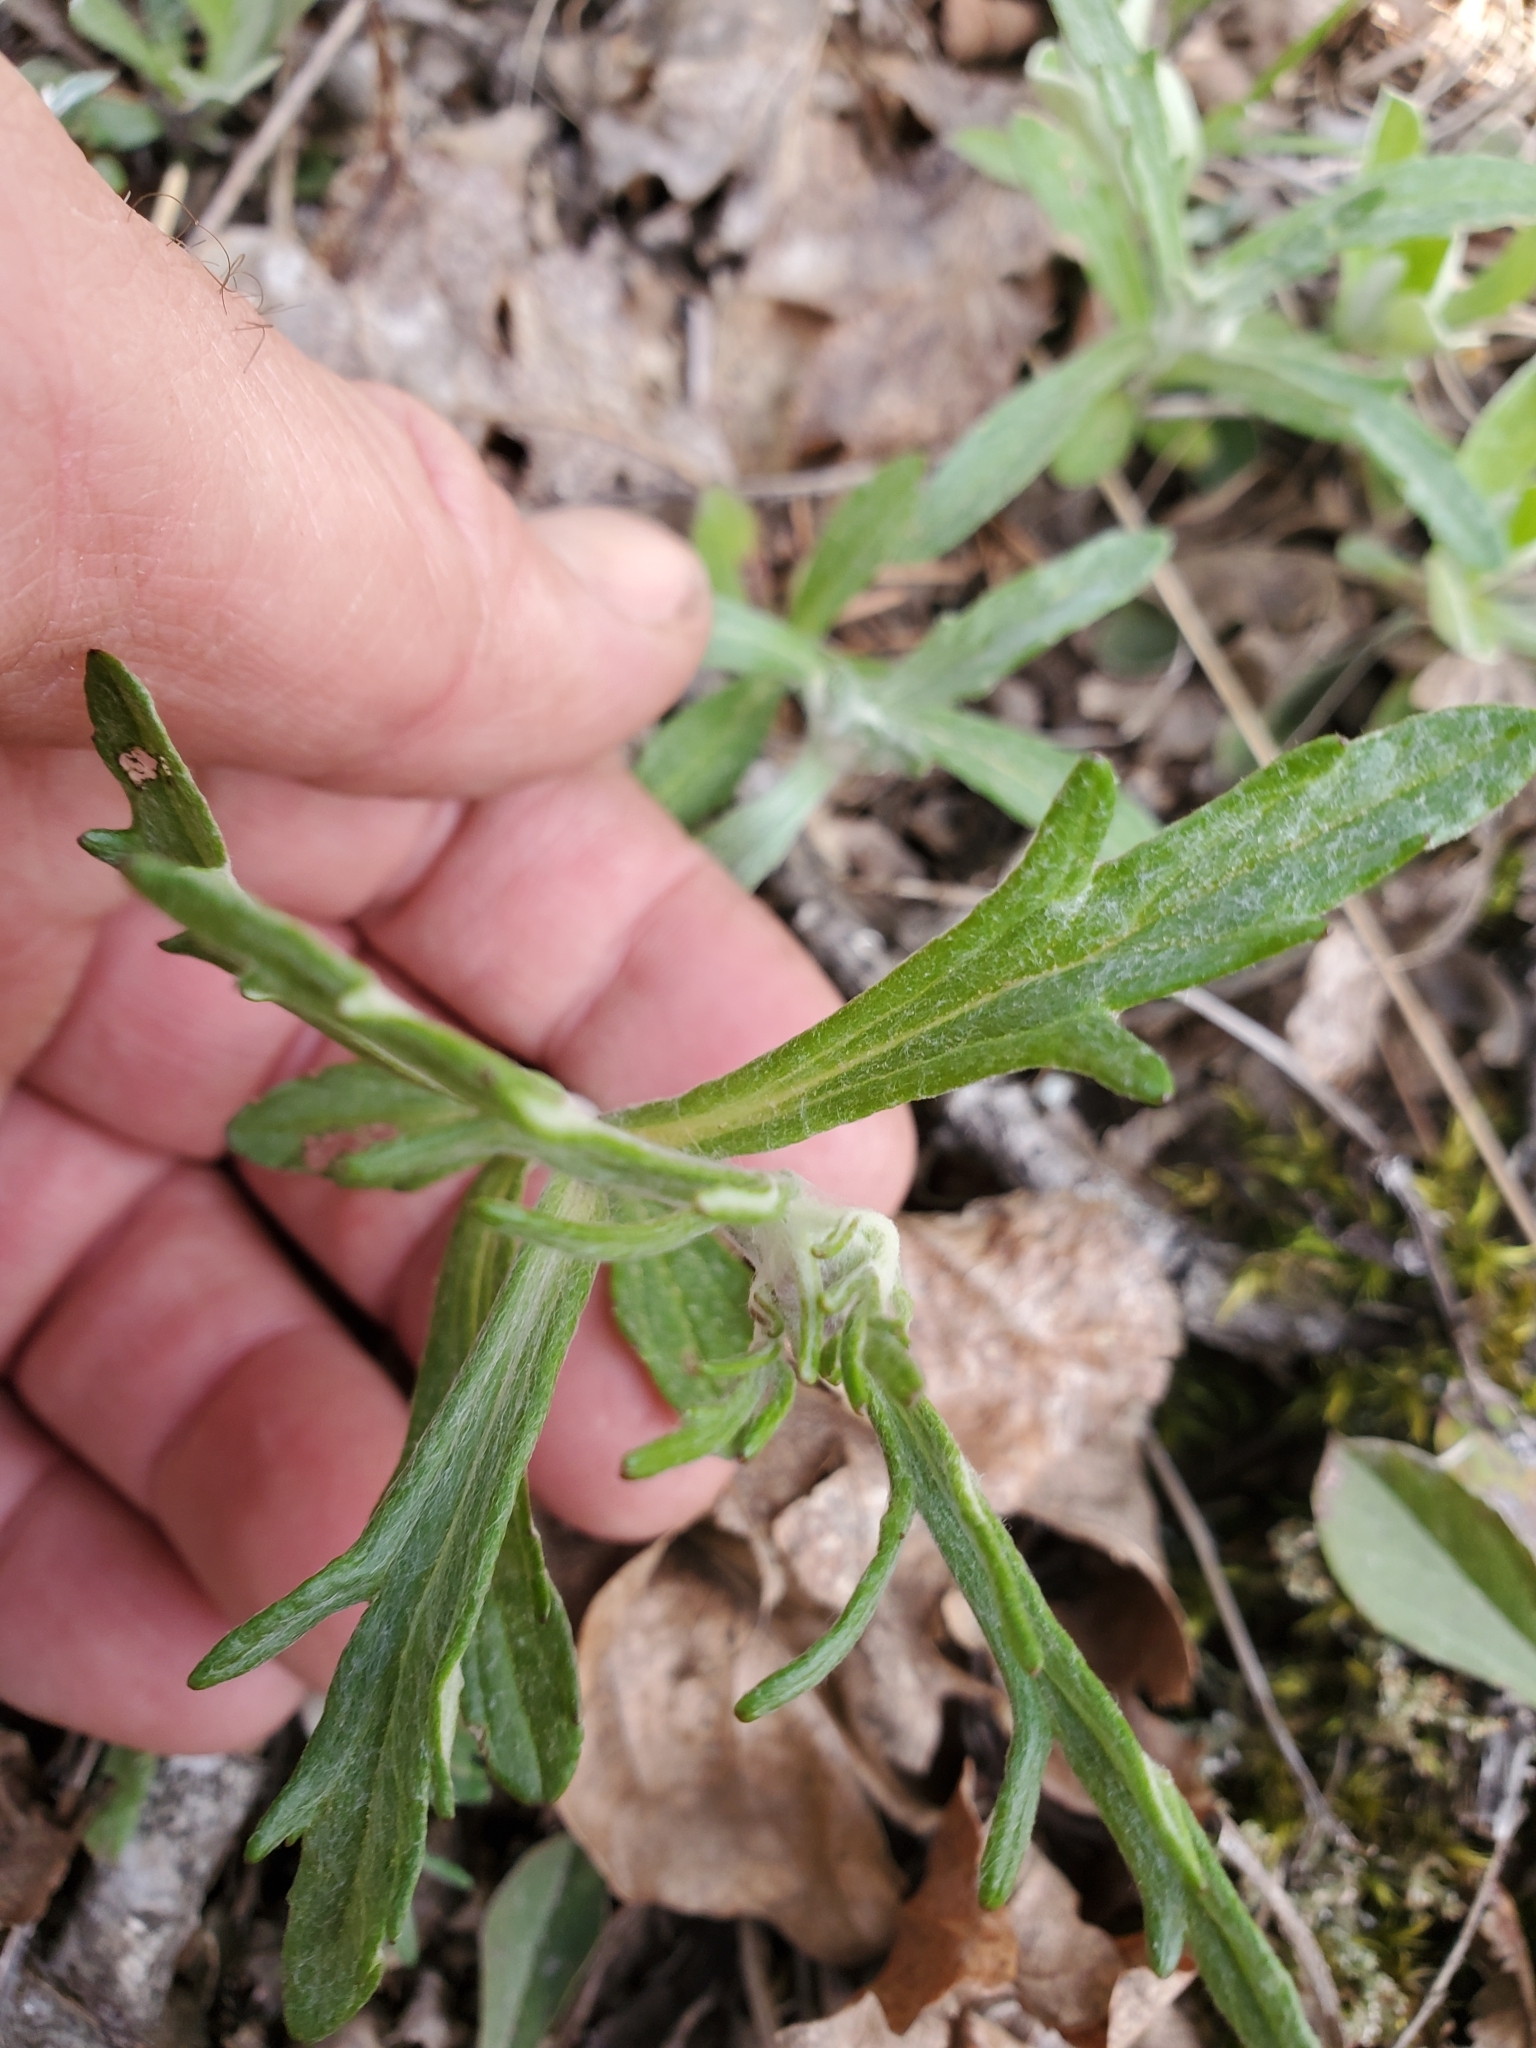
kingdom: Plantae
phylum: Tracheophyta
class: Magnoliopsida
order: Asterales
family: Asteraceae
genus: Eriophyllum
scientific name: Eriophyllum lanatum
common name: Common woolly-sunflower
